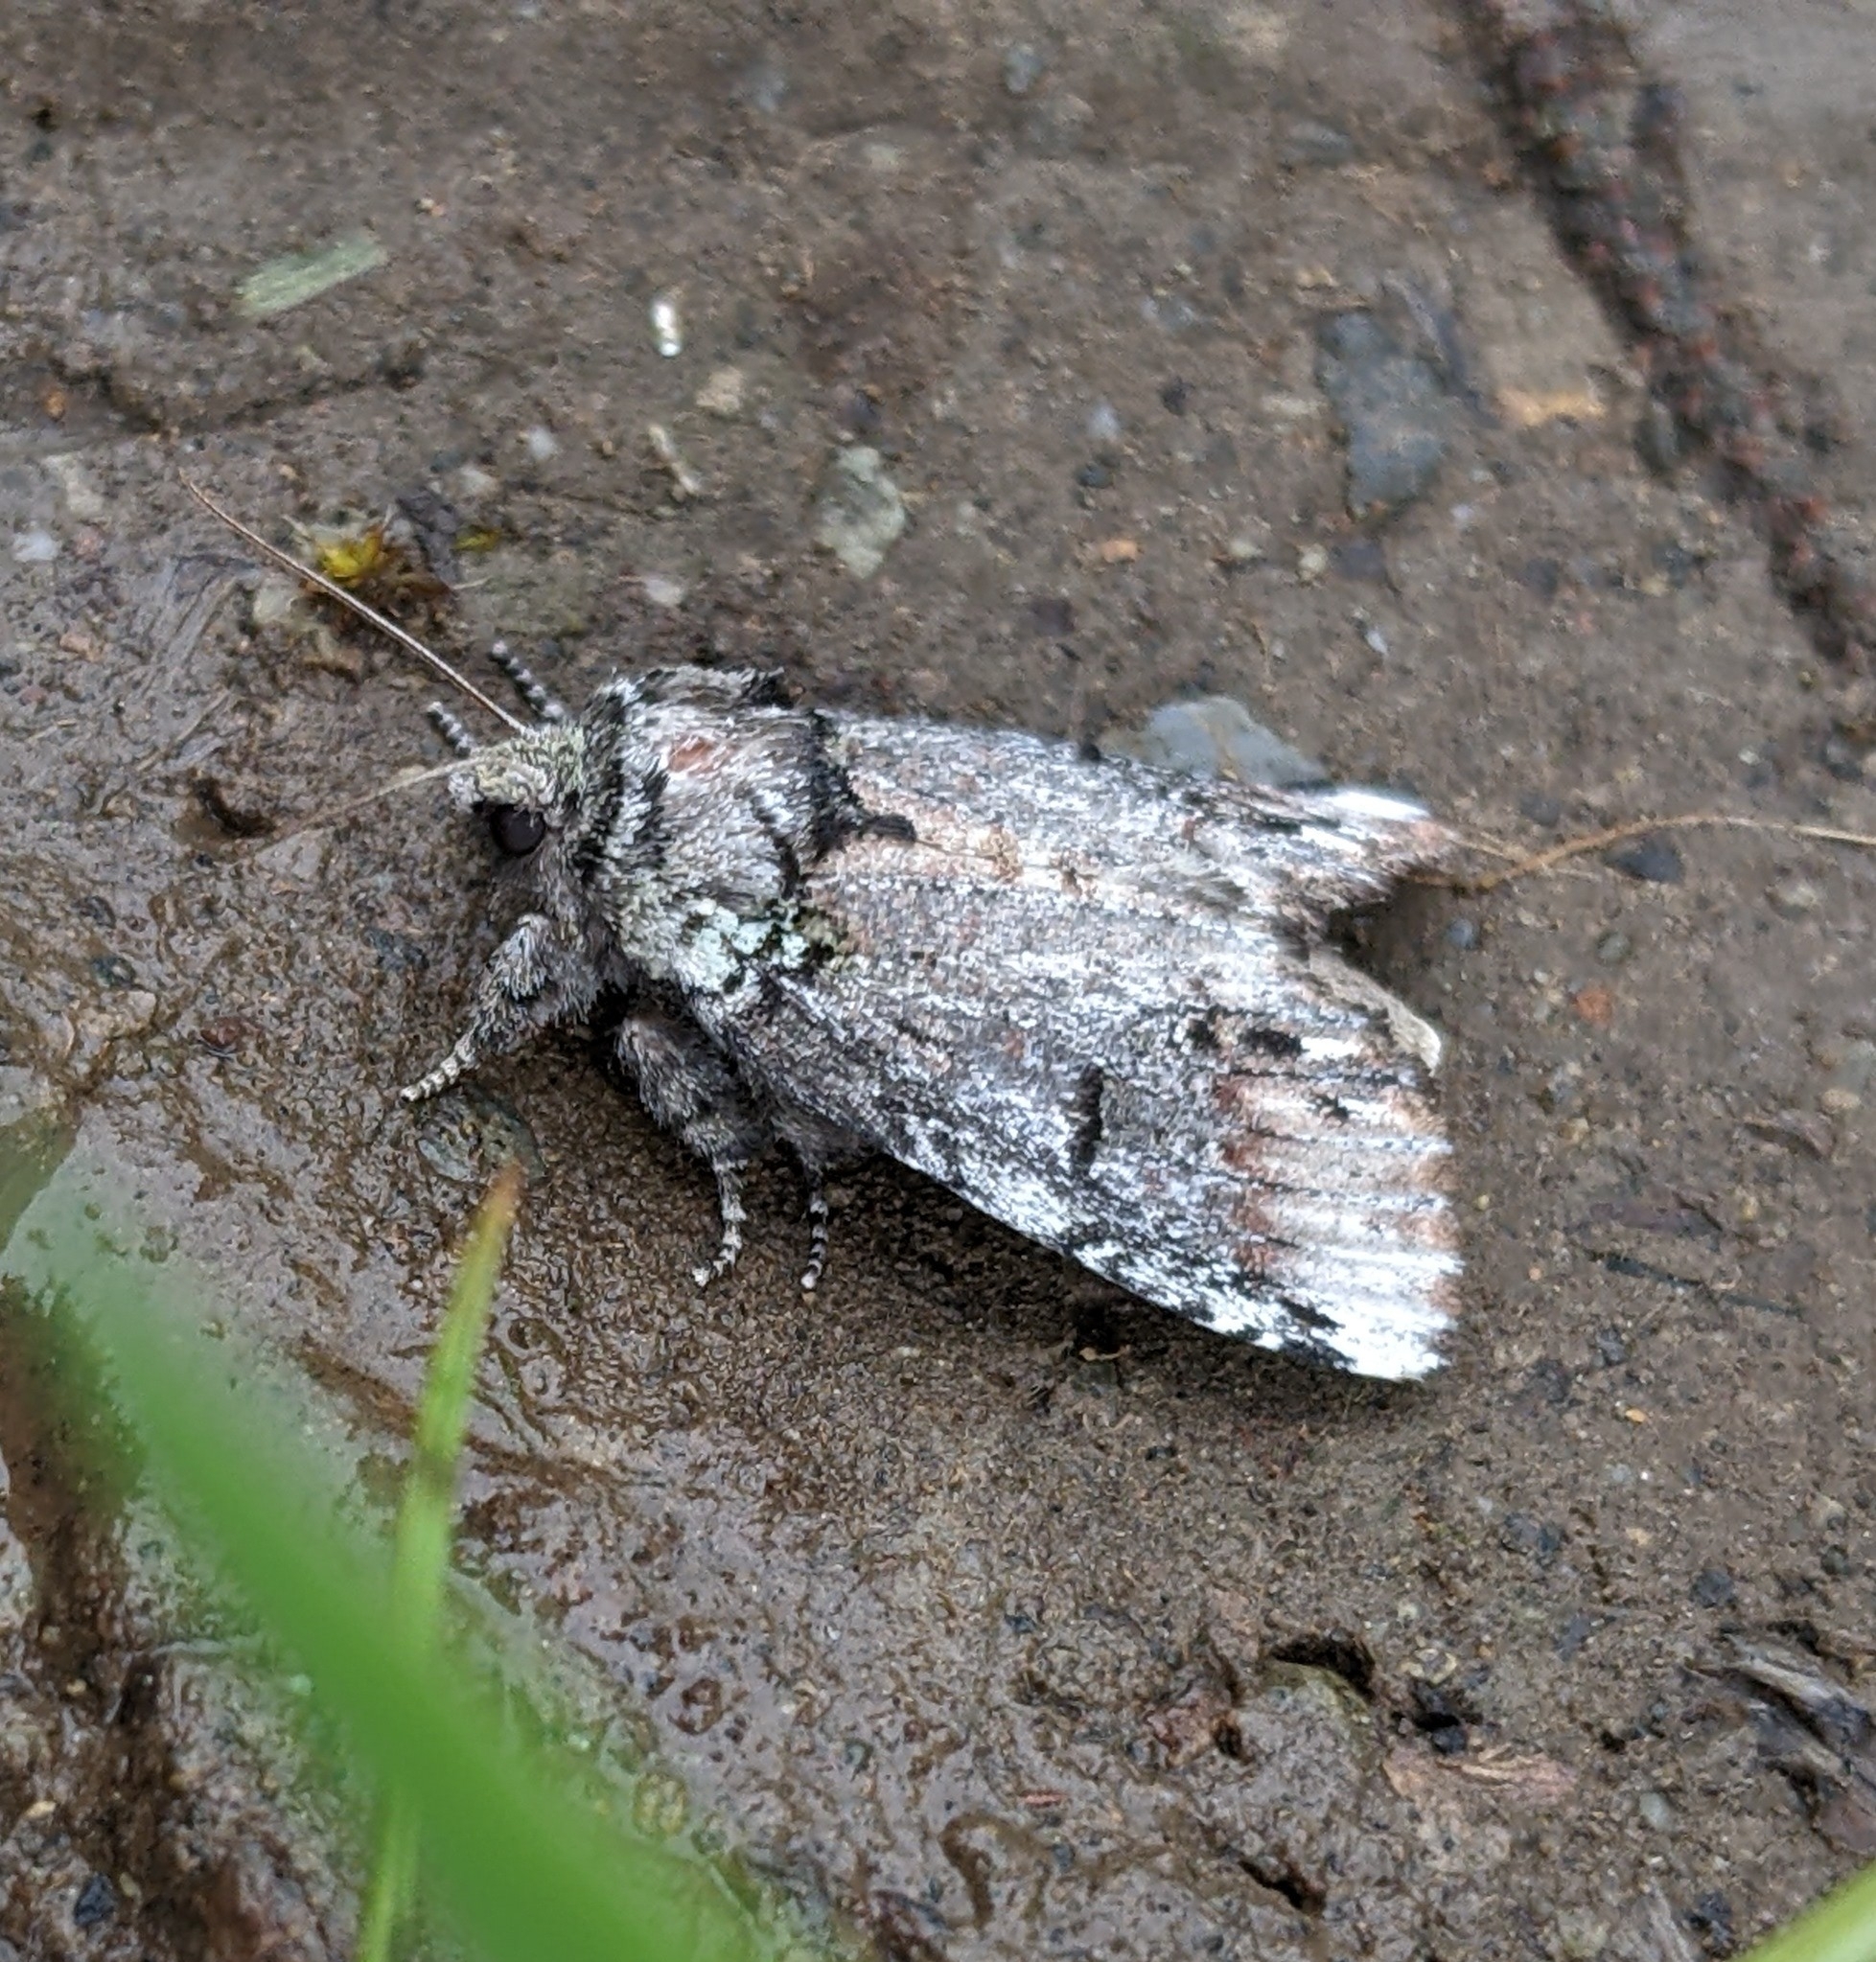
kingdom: Animalia
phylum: Arthropoda
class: Insecta
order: Lepidoptera
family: Notodontidae
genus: Schizura
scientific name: Schizura
